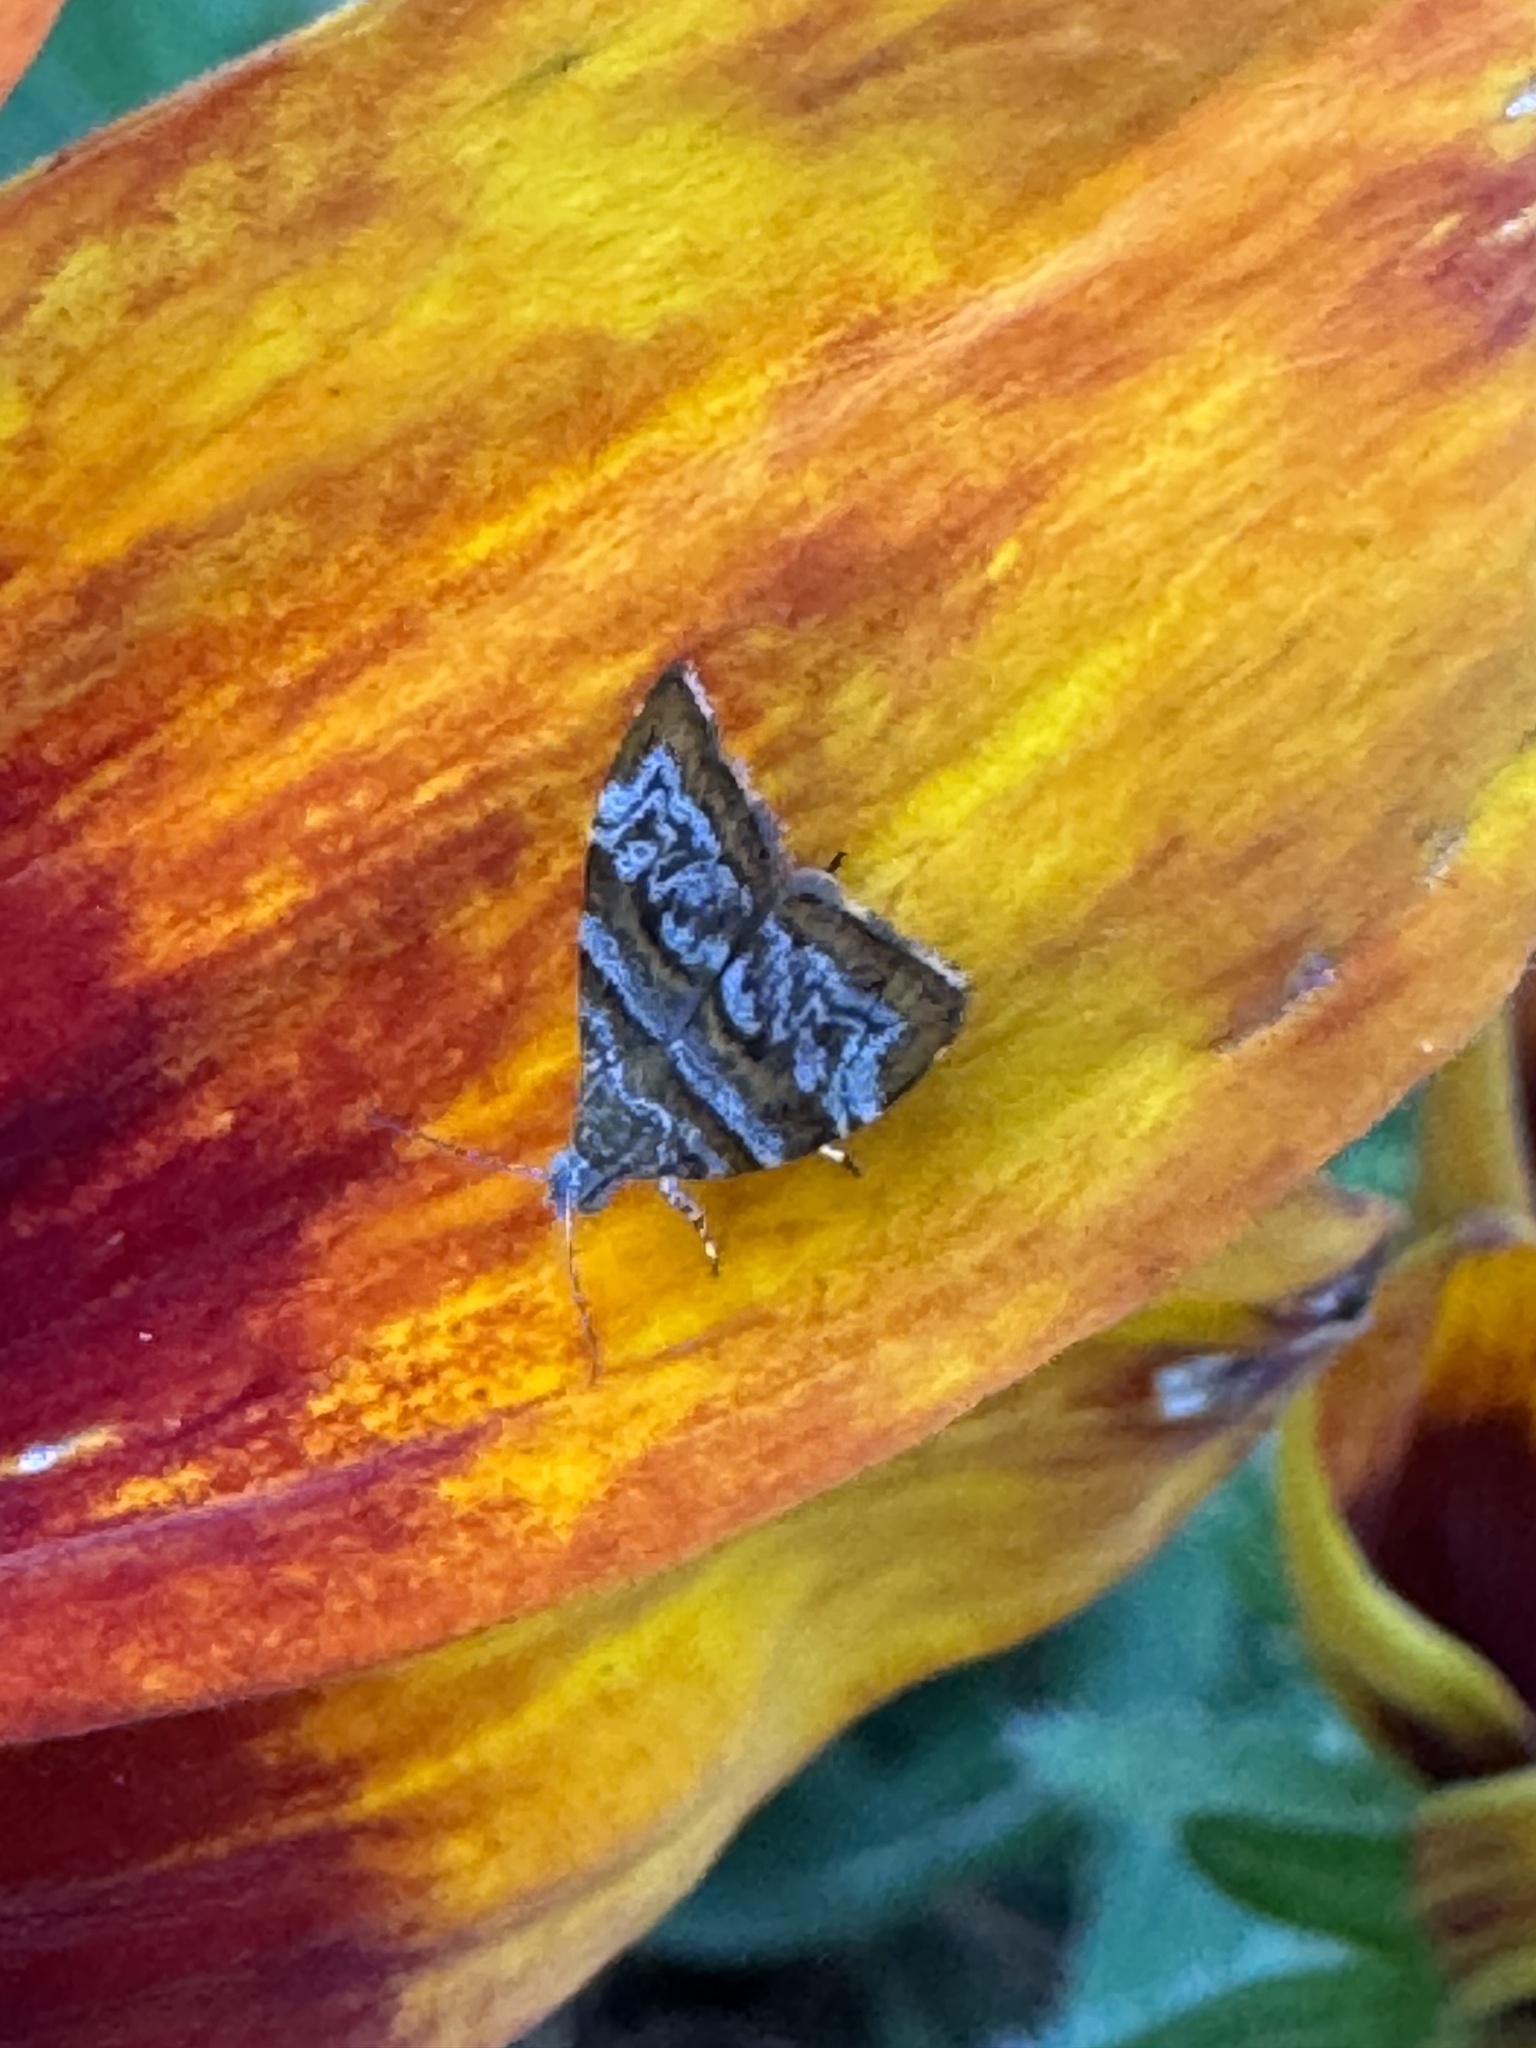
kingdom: Animalia
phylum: Arthropoda
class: Insecta
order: Lepidoptera
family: Choreutidae
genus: Choreutis
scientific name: Choreutis periploca
